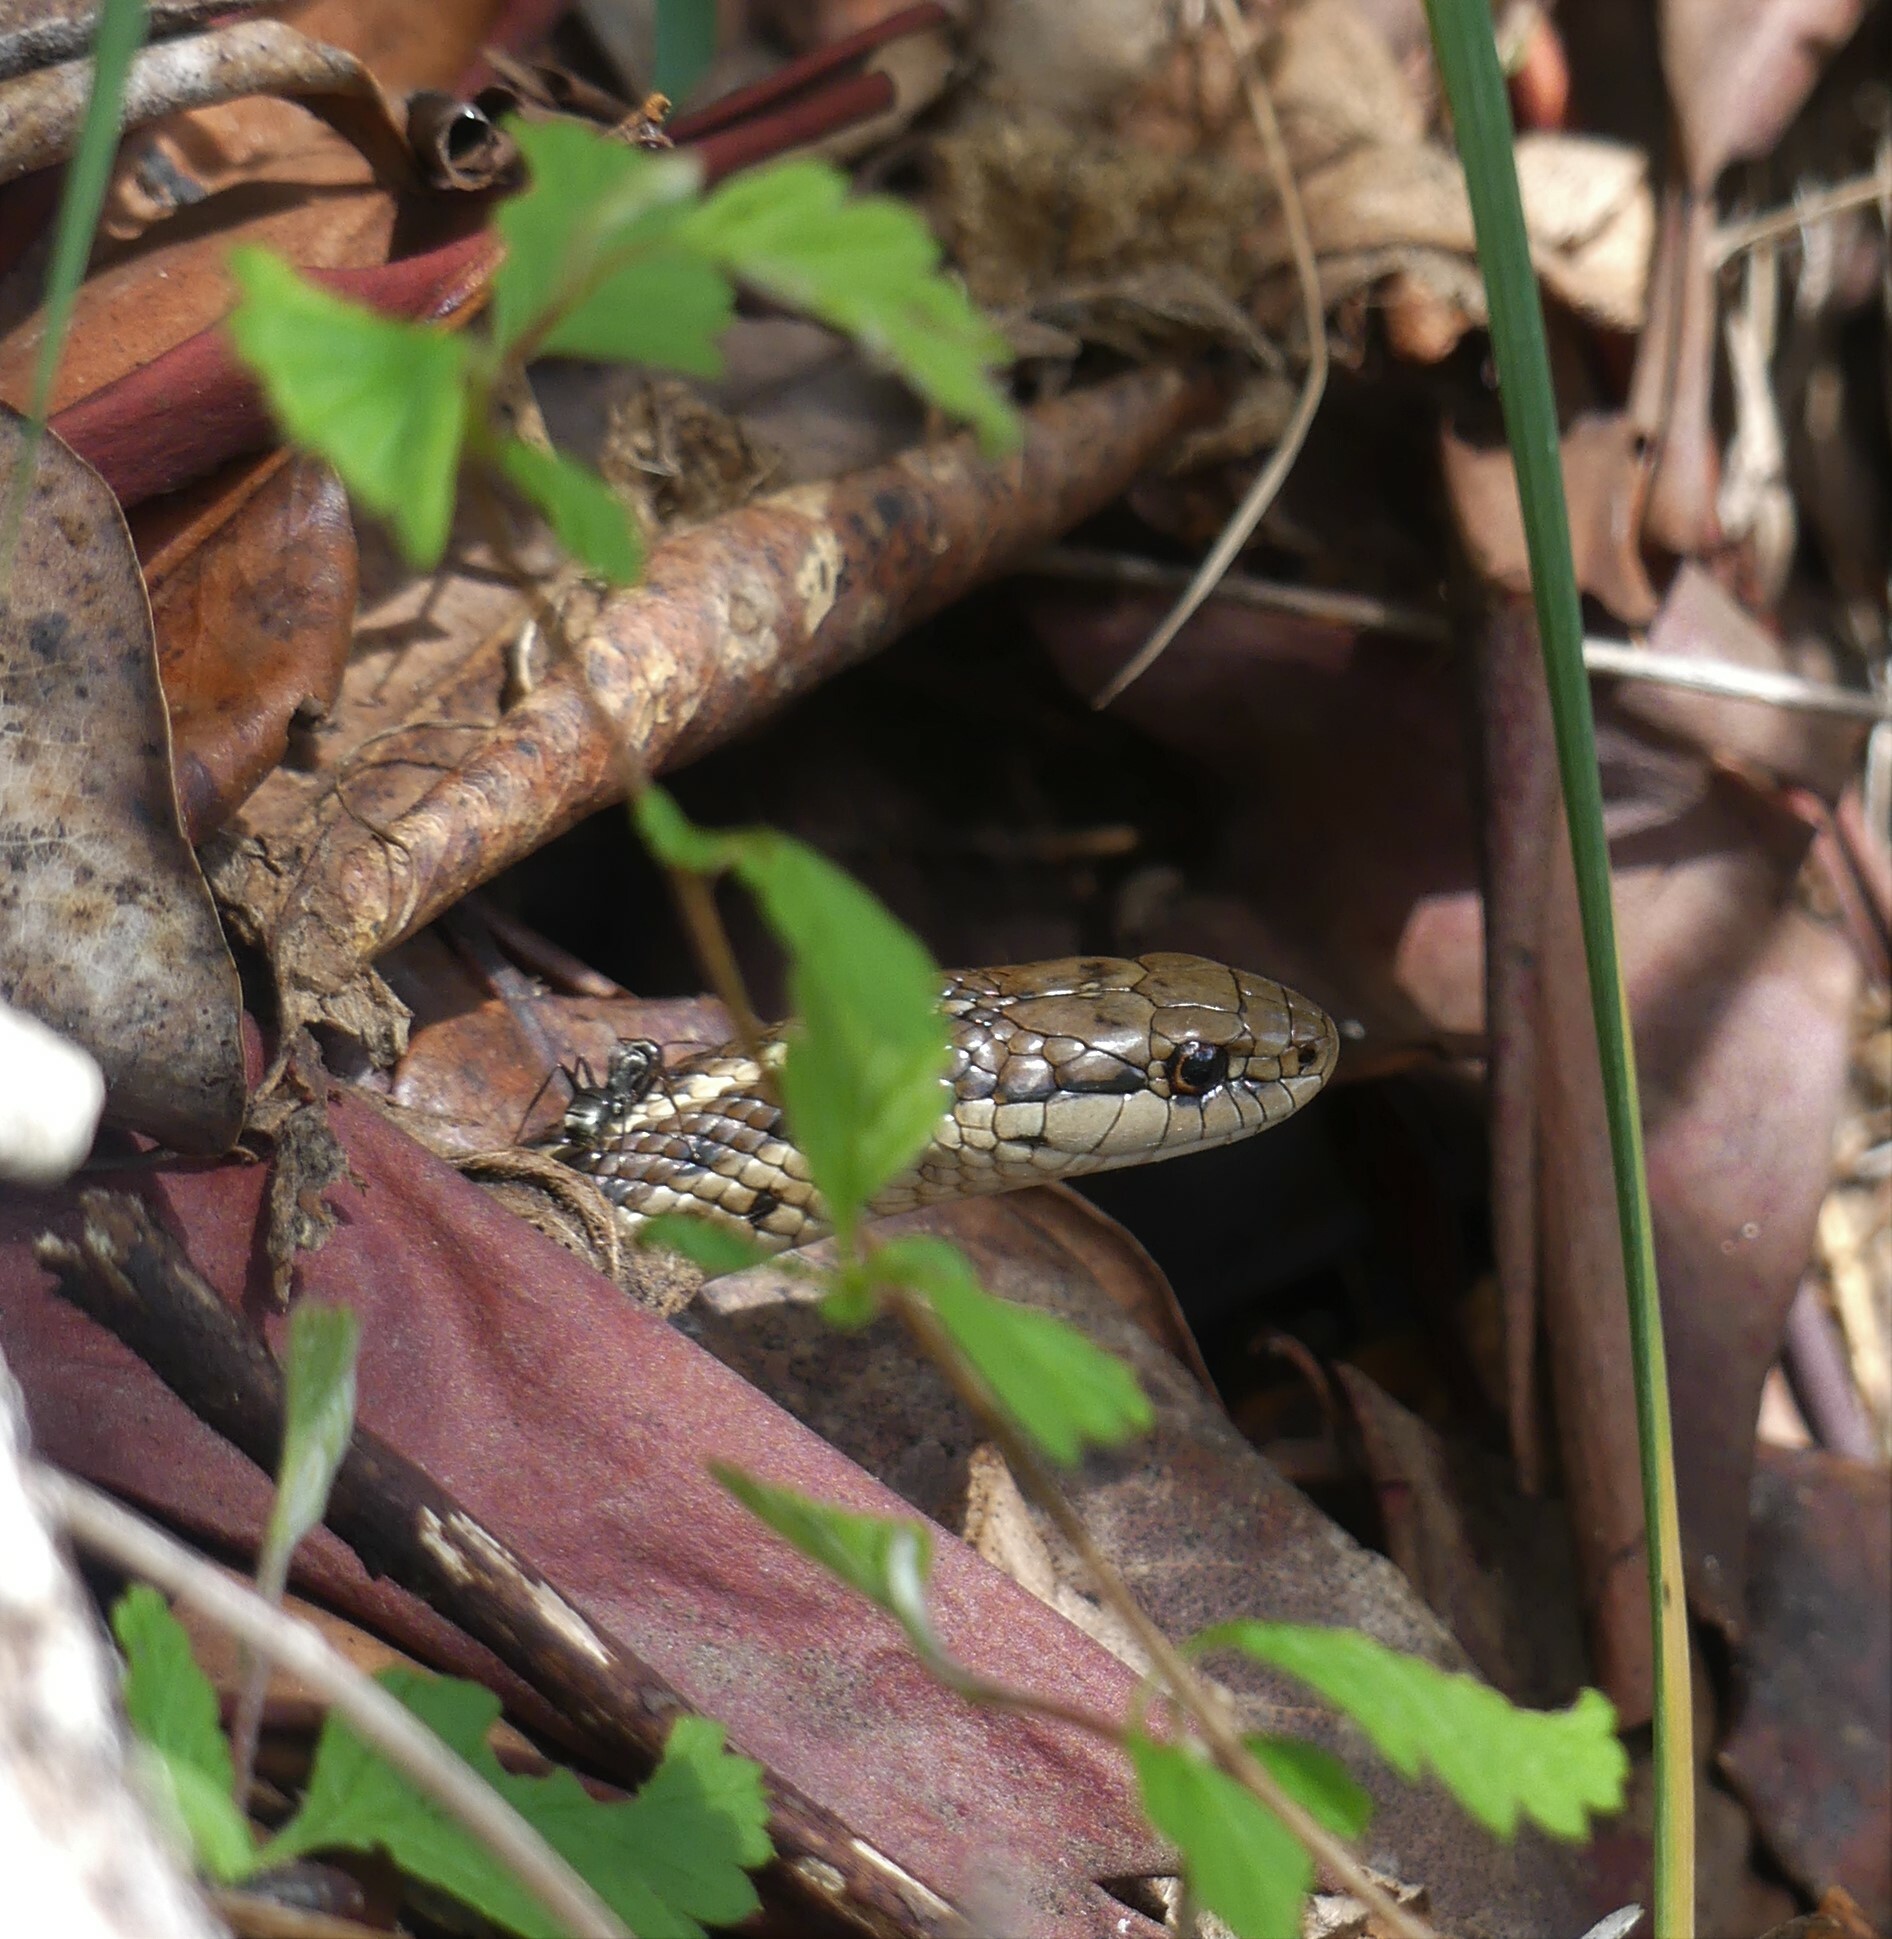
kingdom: Animalia
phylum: Chordata
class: Squamata
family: Colubridae
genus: Thamnophis
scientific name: Thamnophis ordinoides
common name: Northwestern garter snake
